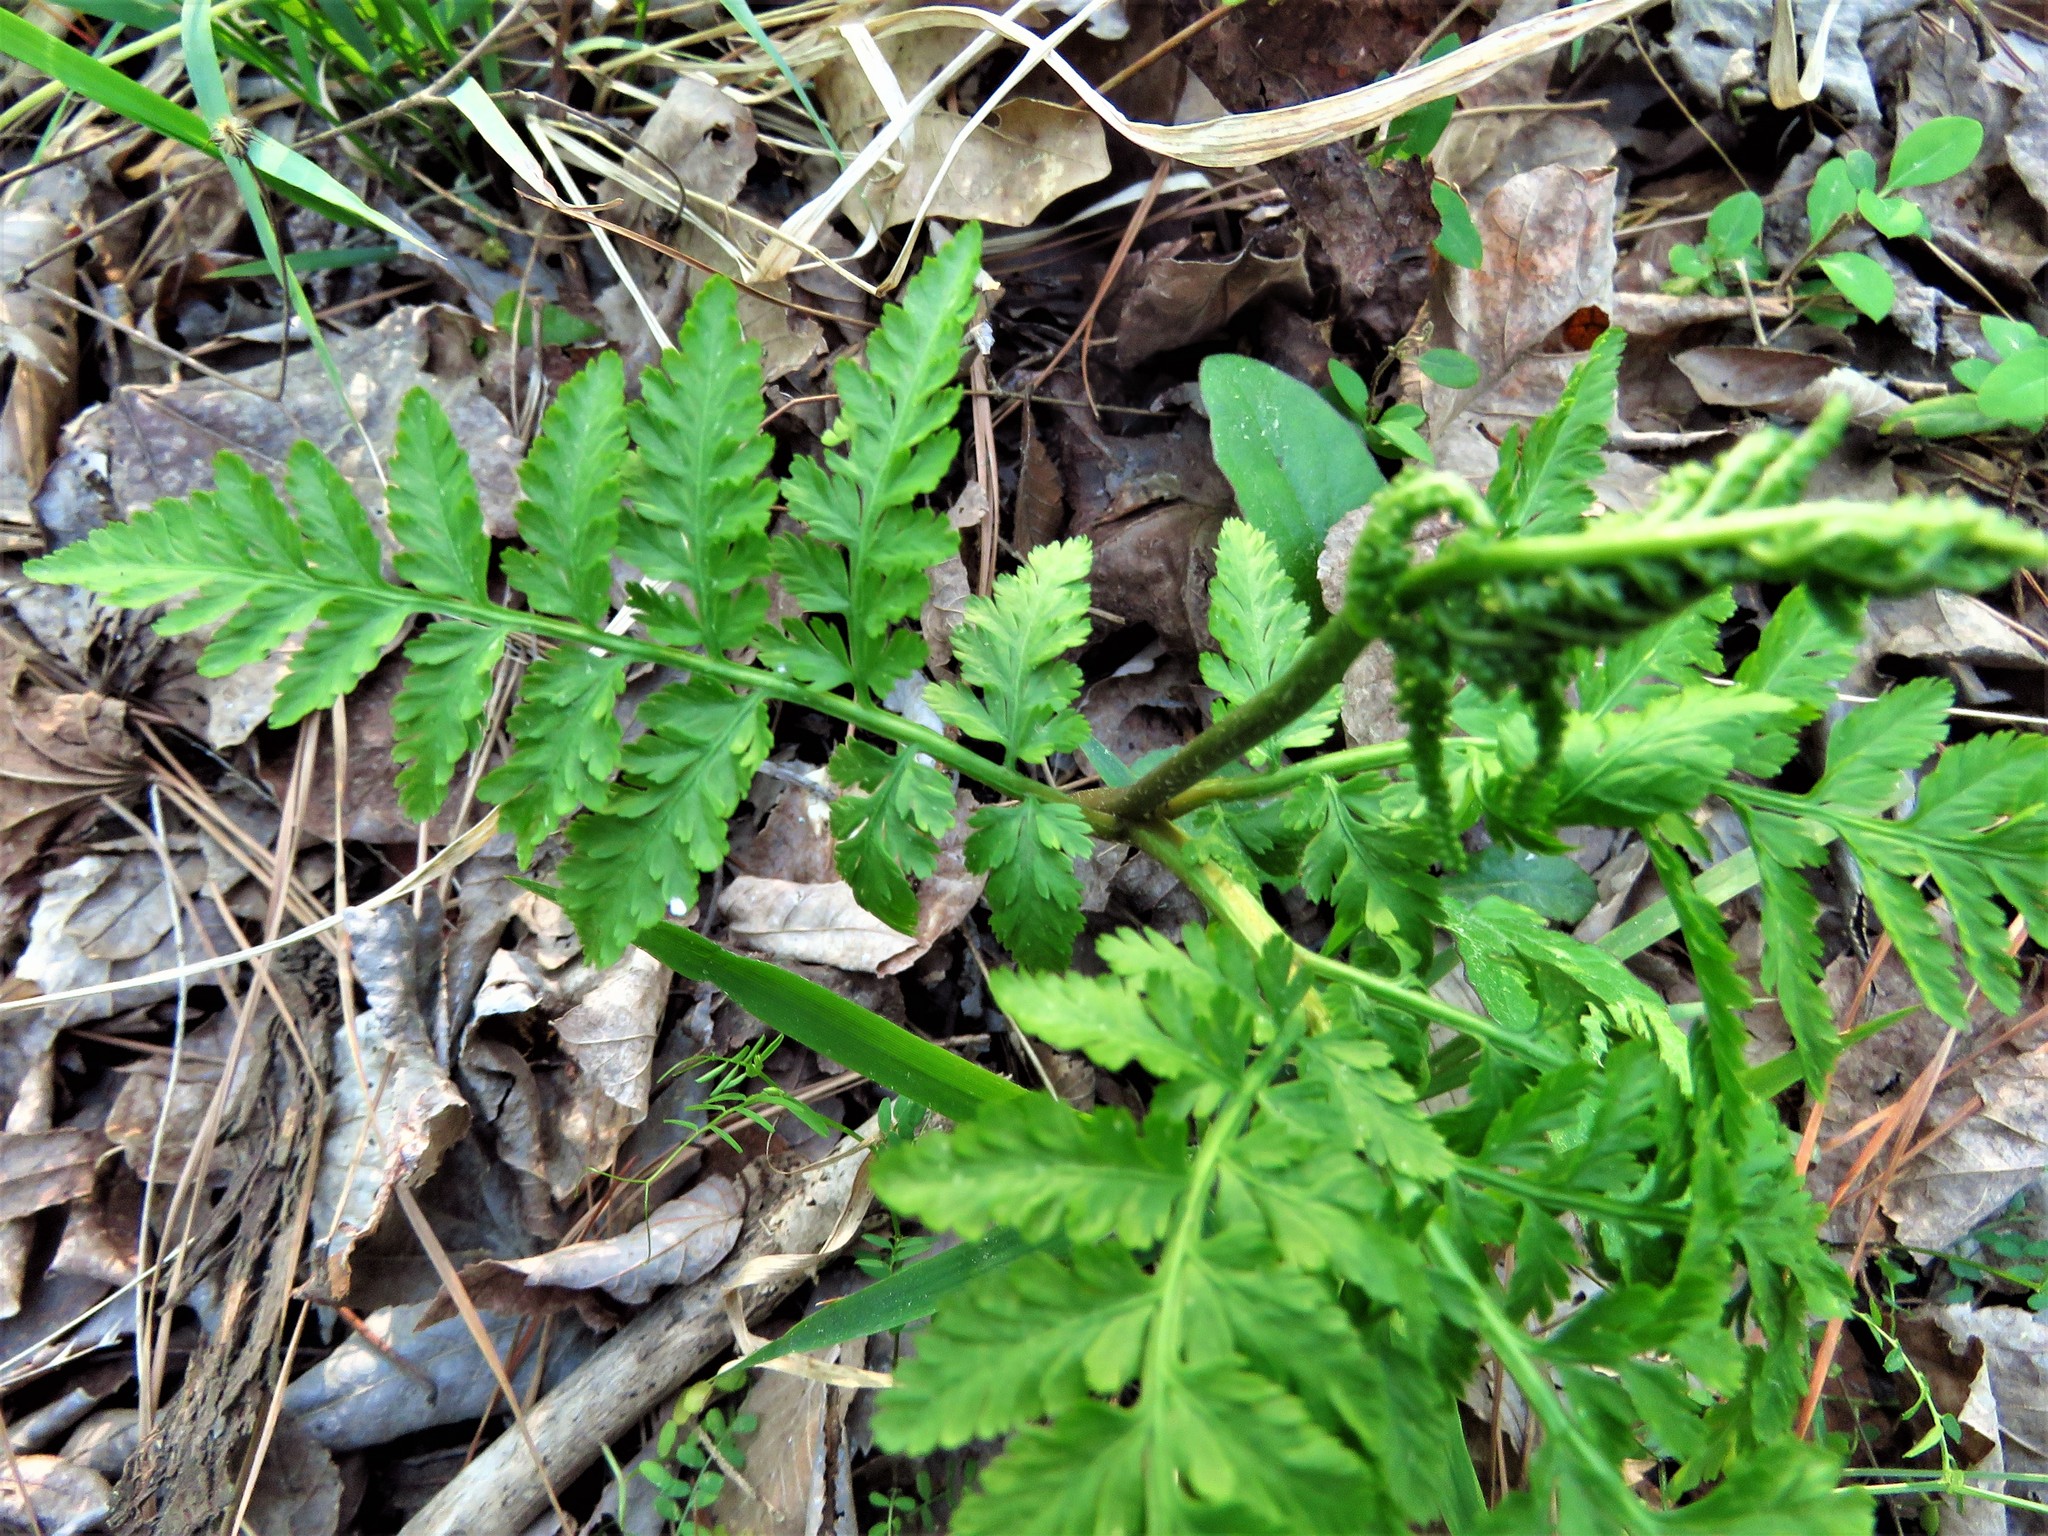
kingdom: Plantae
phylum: Tracheophyta
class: Polypodiopsida
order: Ophioglossales
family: Ophioglossaceae
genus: Botrypus
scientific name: Botrypus virginianus
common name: Common grapefern
